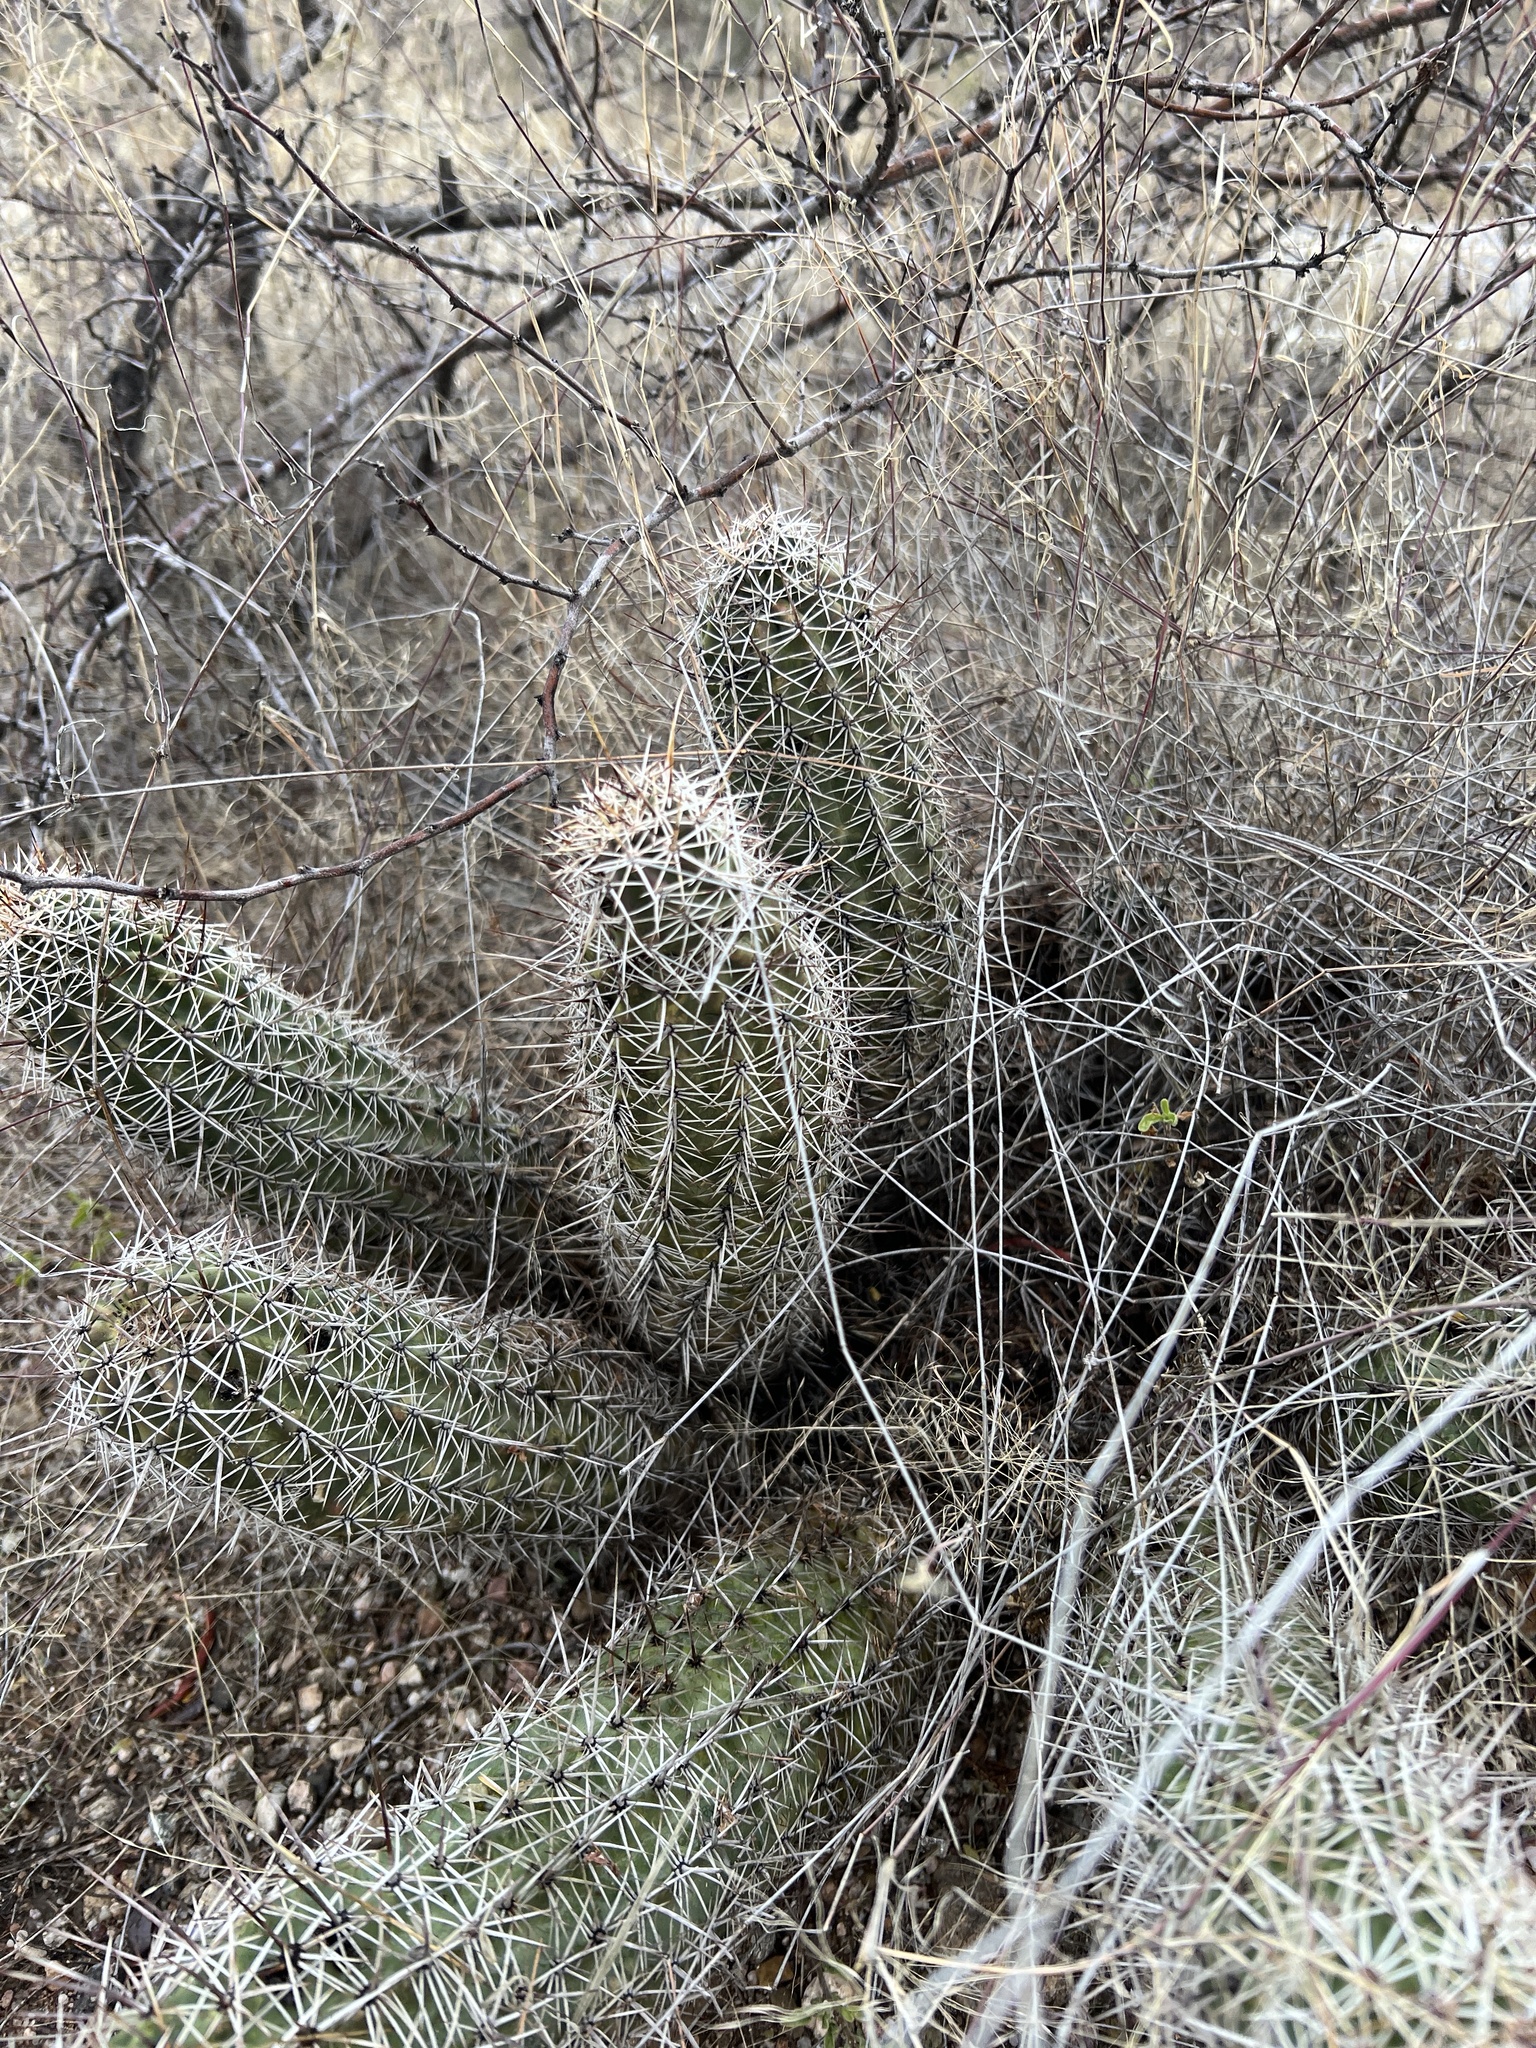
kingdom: Plantae
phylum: Tracheophyta
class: Magnoliopsida
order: Caryophyllales
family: Cactaceae
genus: Echinocereus
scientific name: Echinocereus fasciculatus
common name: Bundle hedgehog
